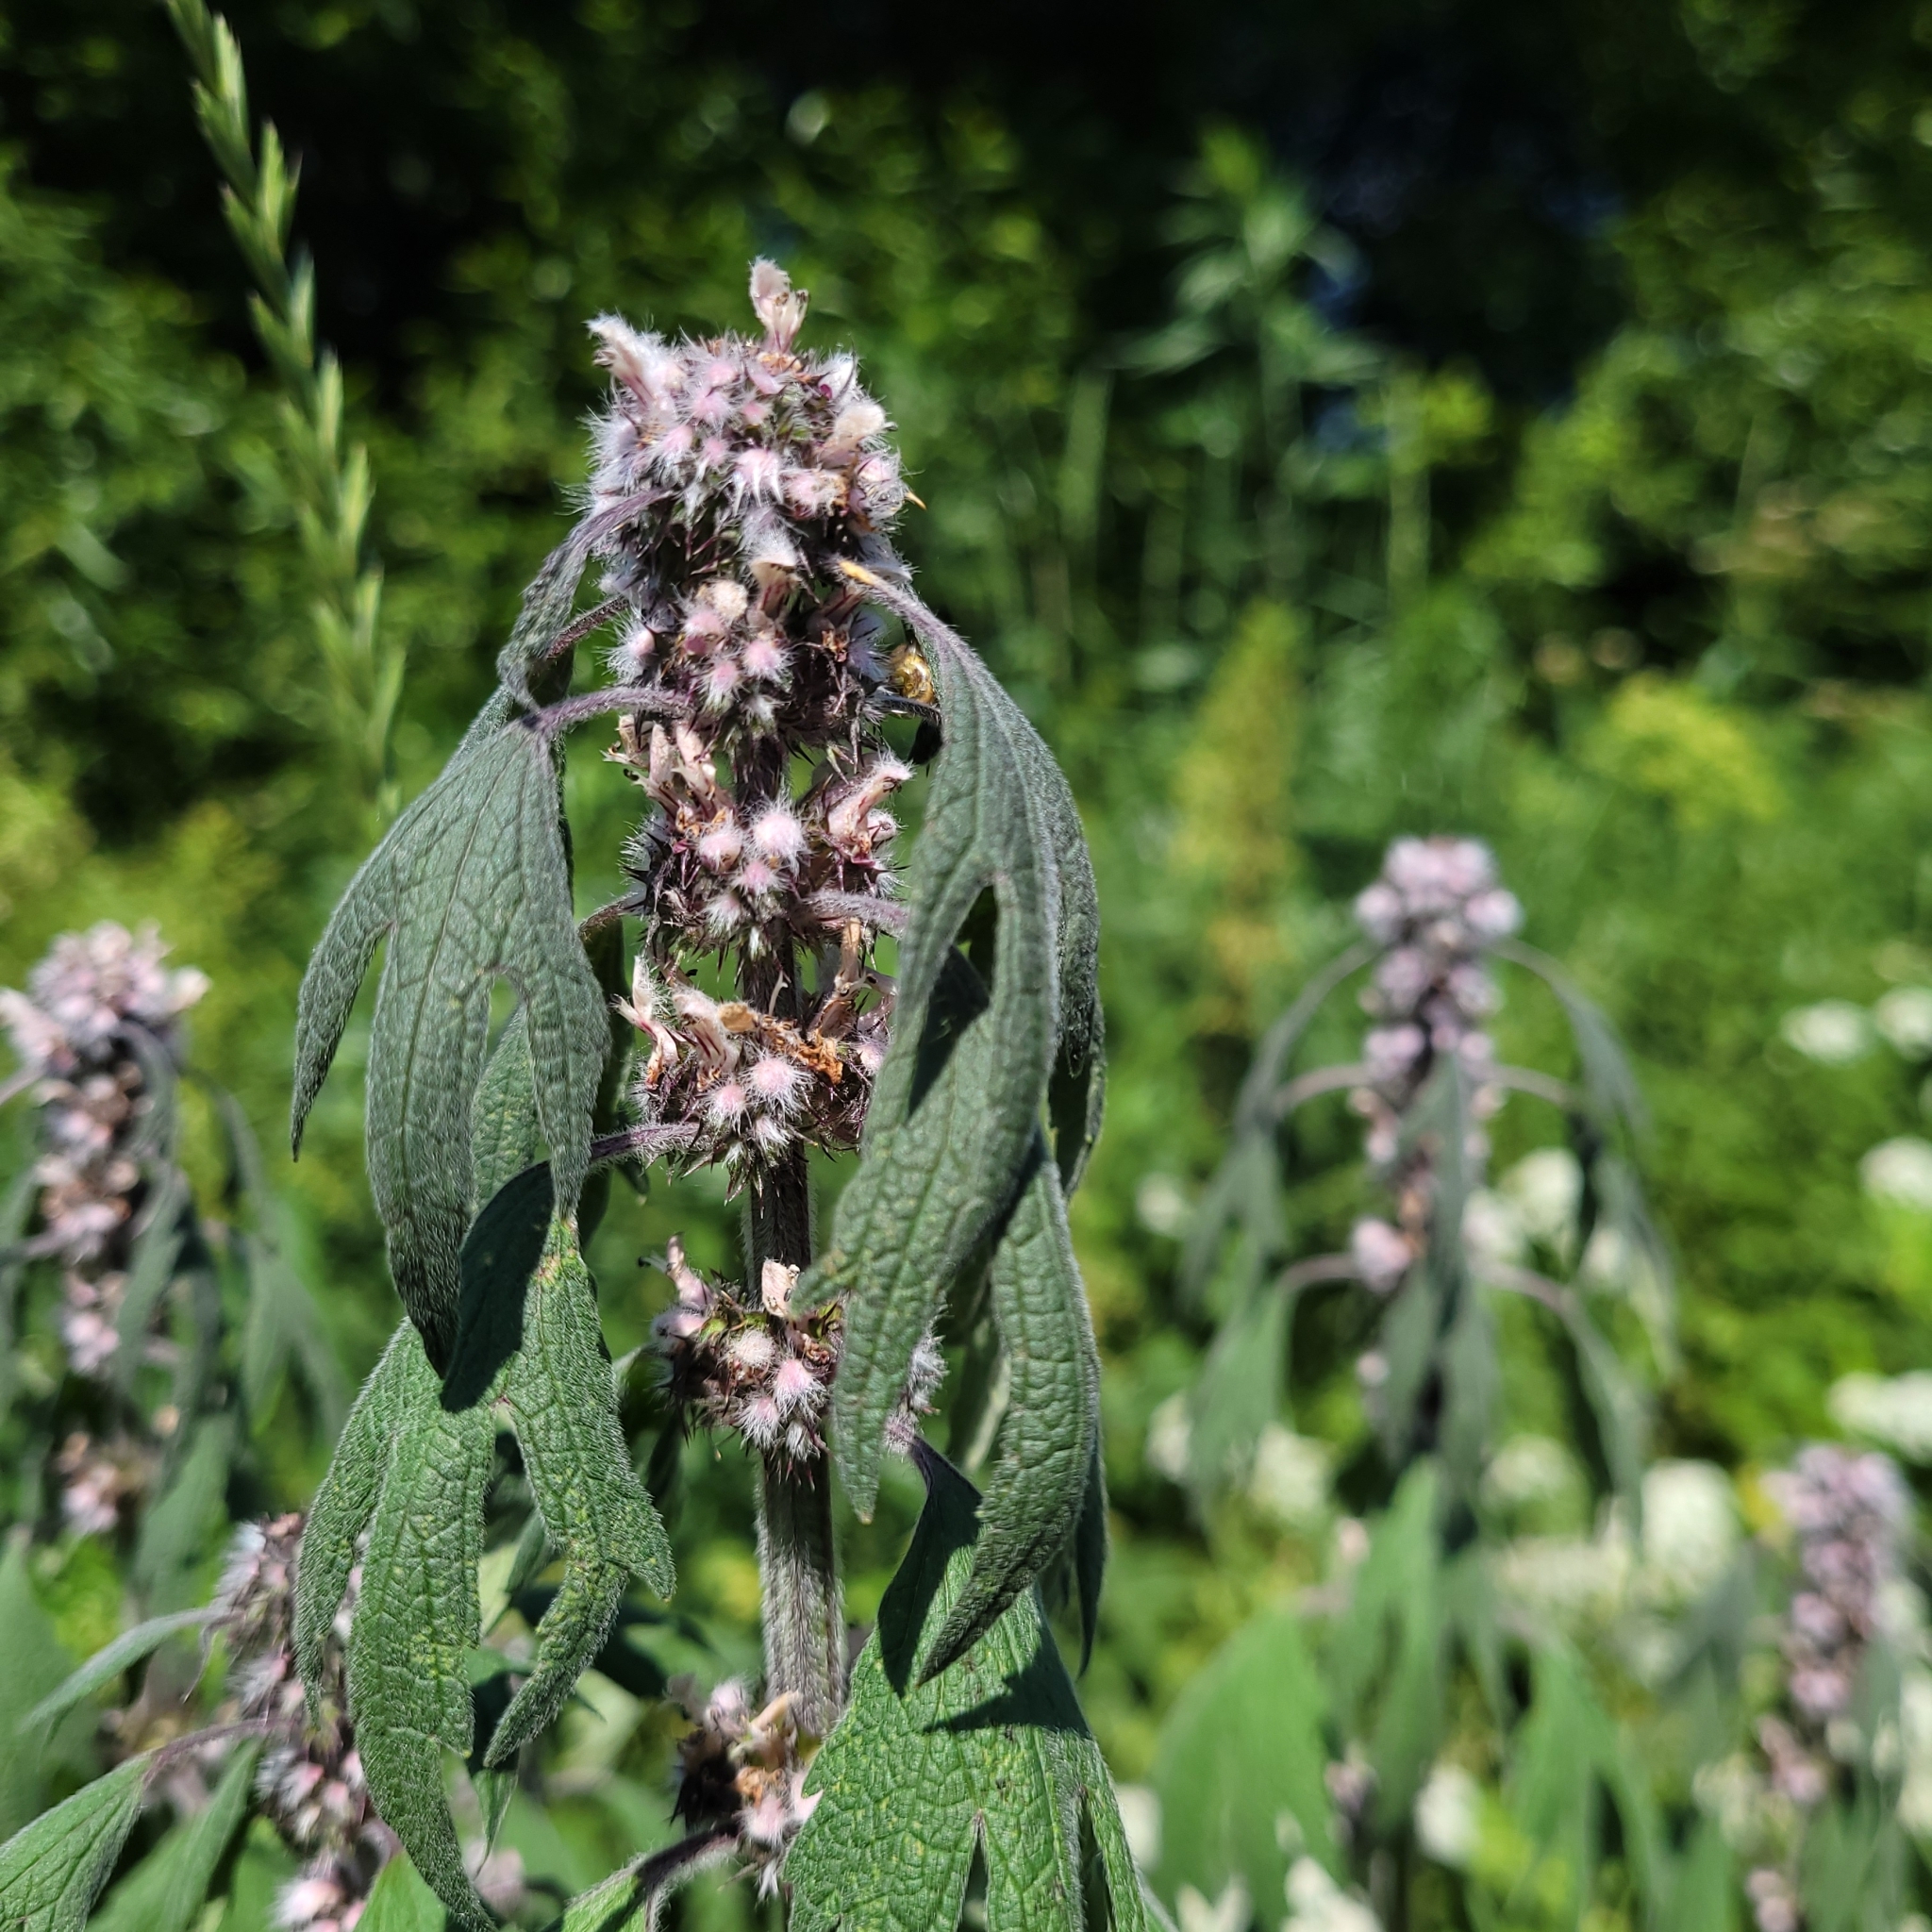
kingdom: Plantae
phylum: Tracheophyta
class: Magnoliopsida
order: Lamiales
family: Lamiaceae
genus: Leonurus
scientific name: Leonurus quinquelobatus
